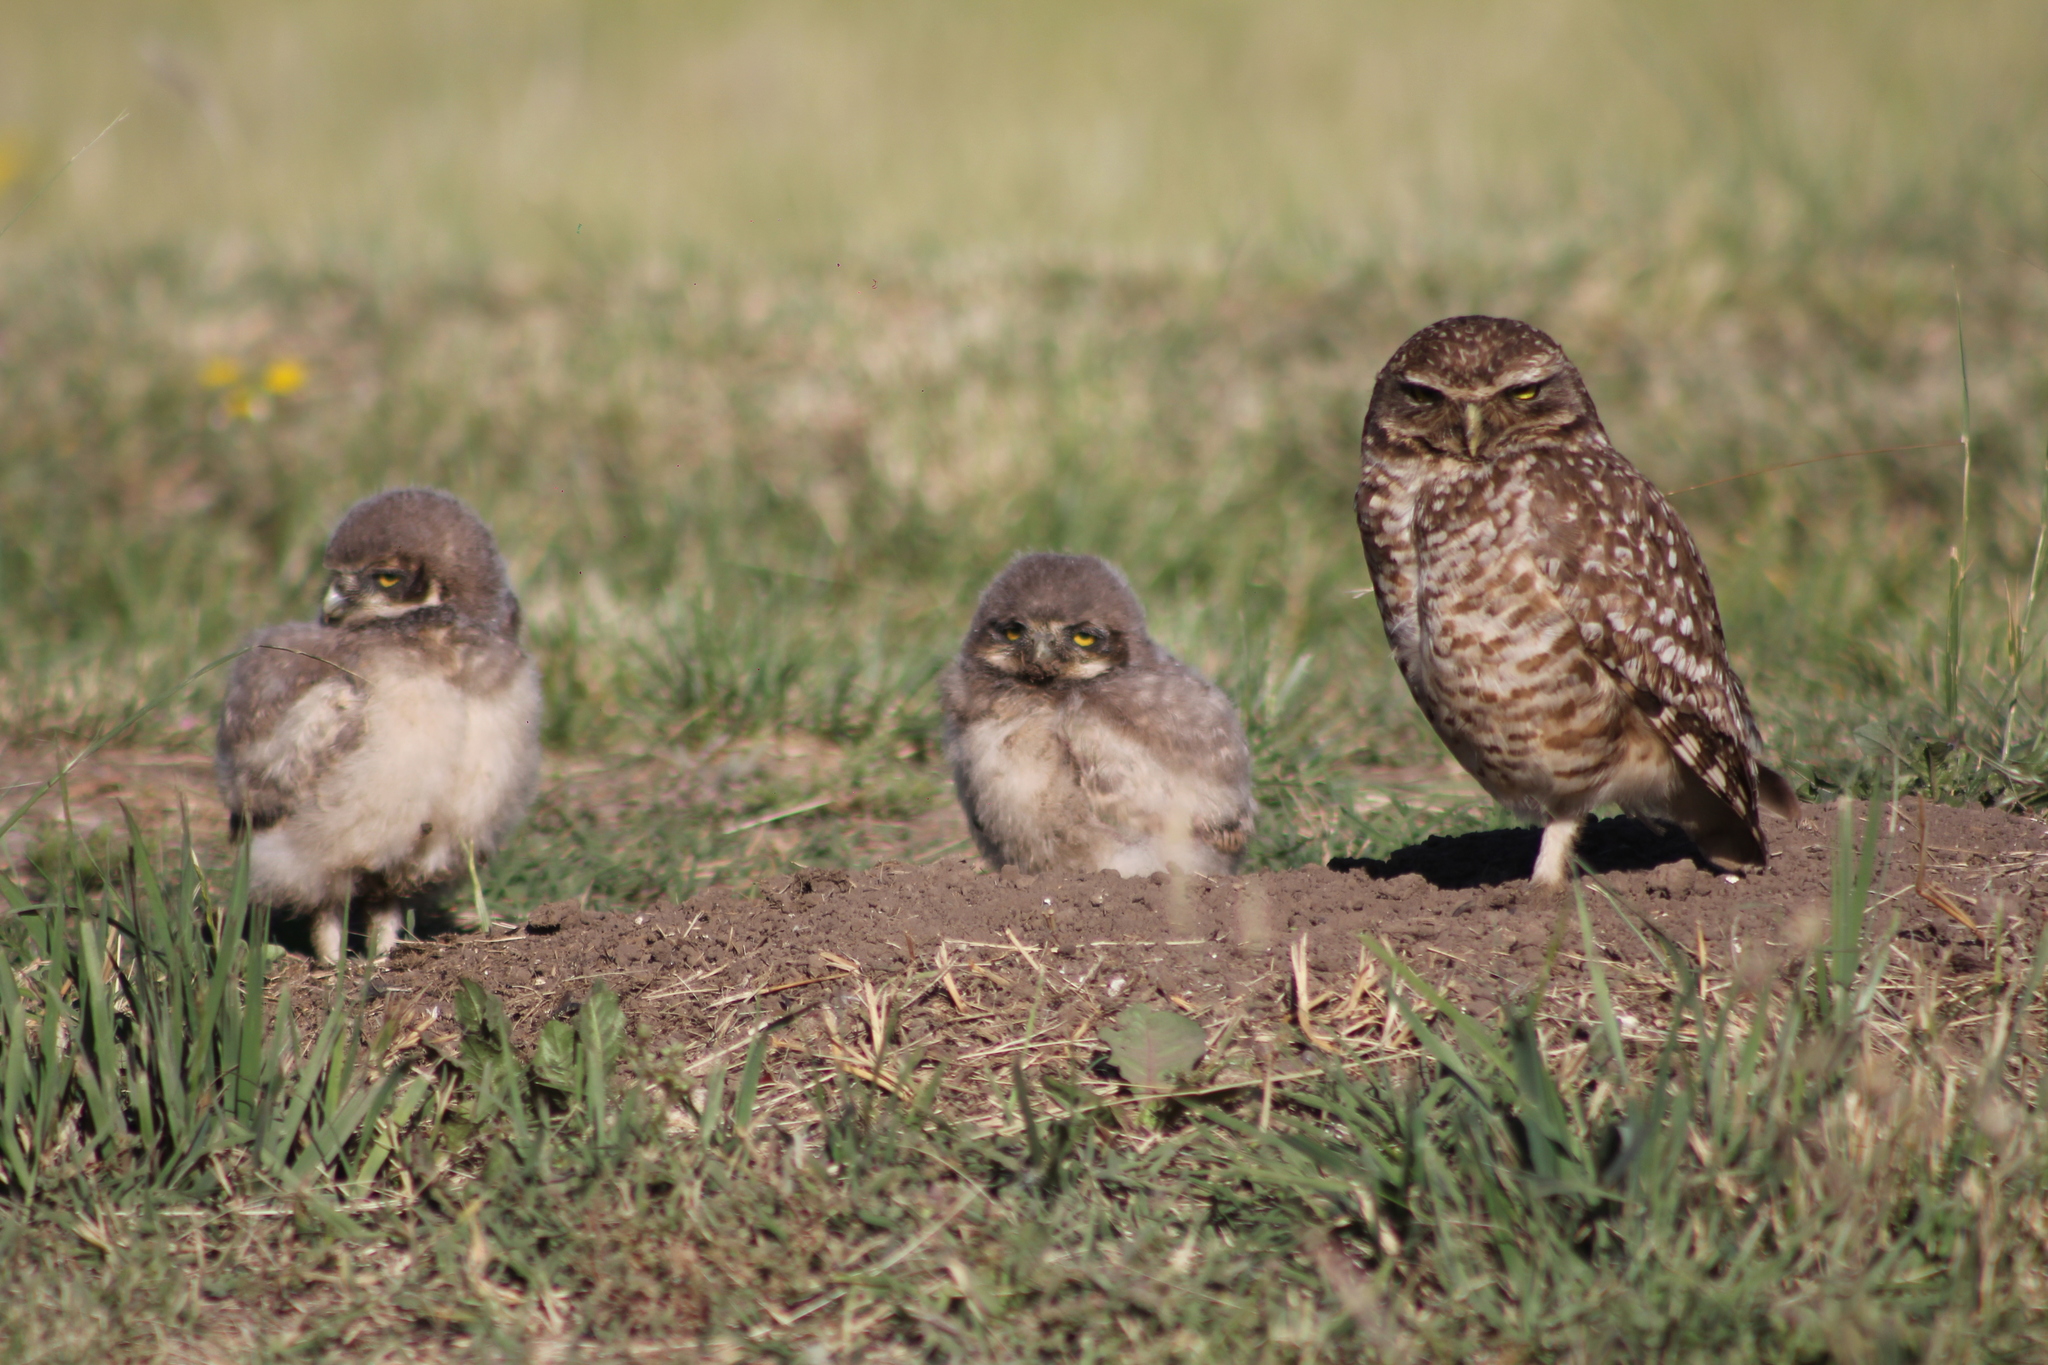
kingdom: Animalia
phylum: Chordata
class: Aves
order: Strigiformes
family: Strigidae
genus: Athene
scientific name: Athene cunicularia
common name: Burrowing owl
